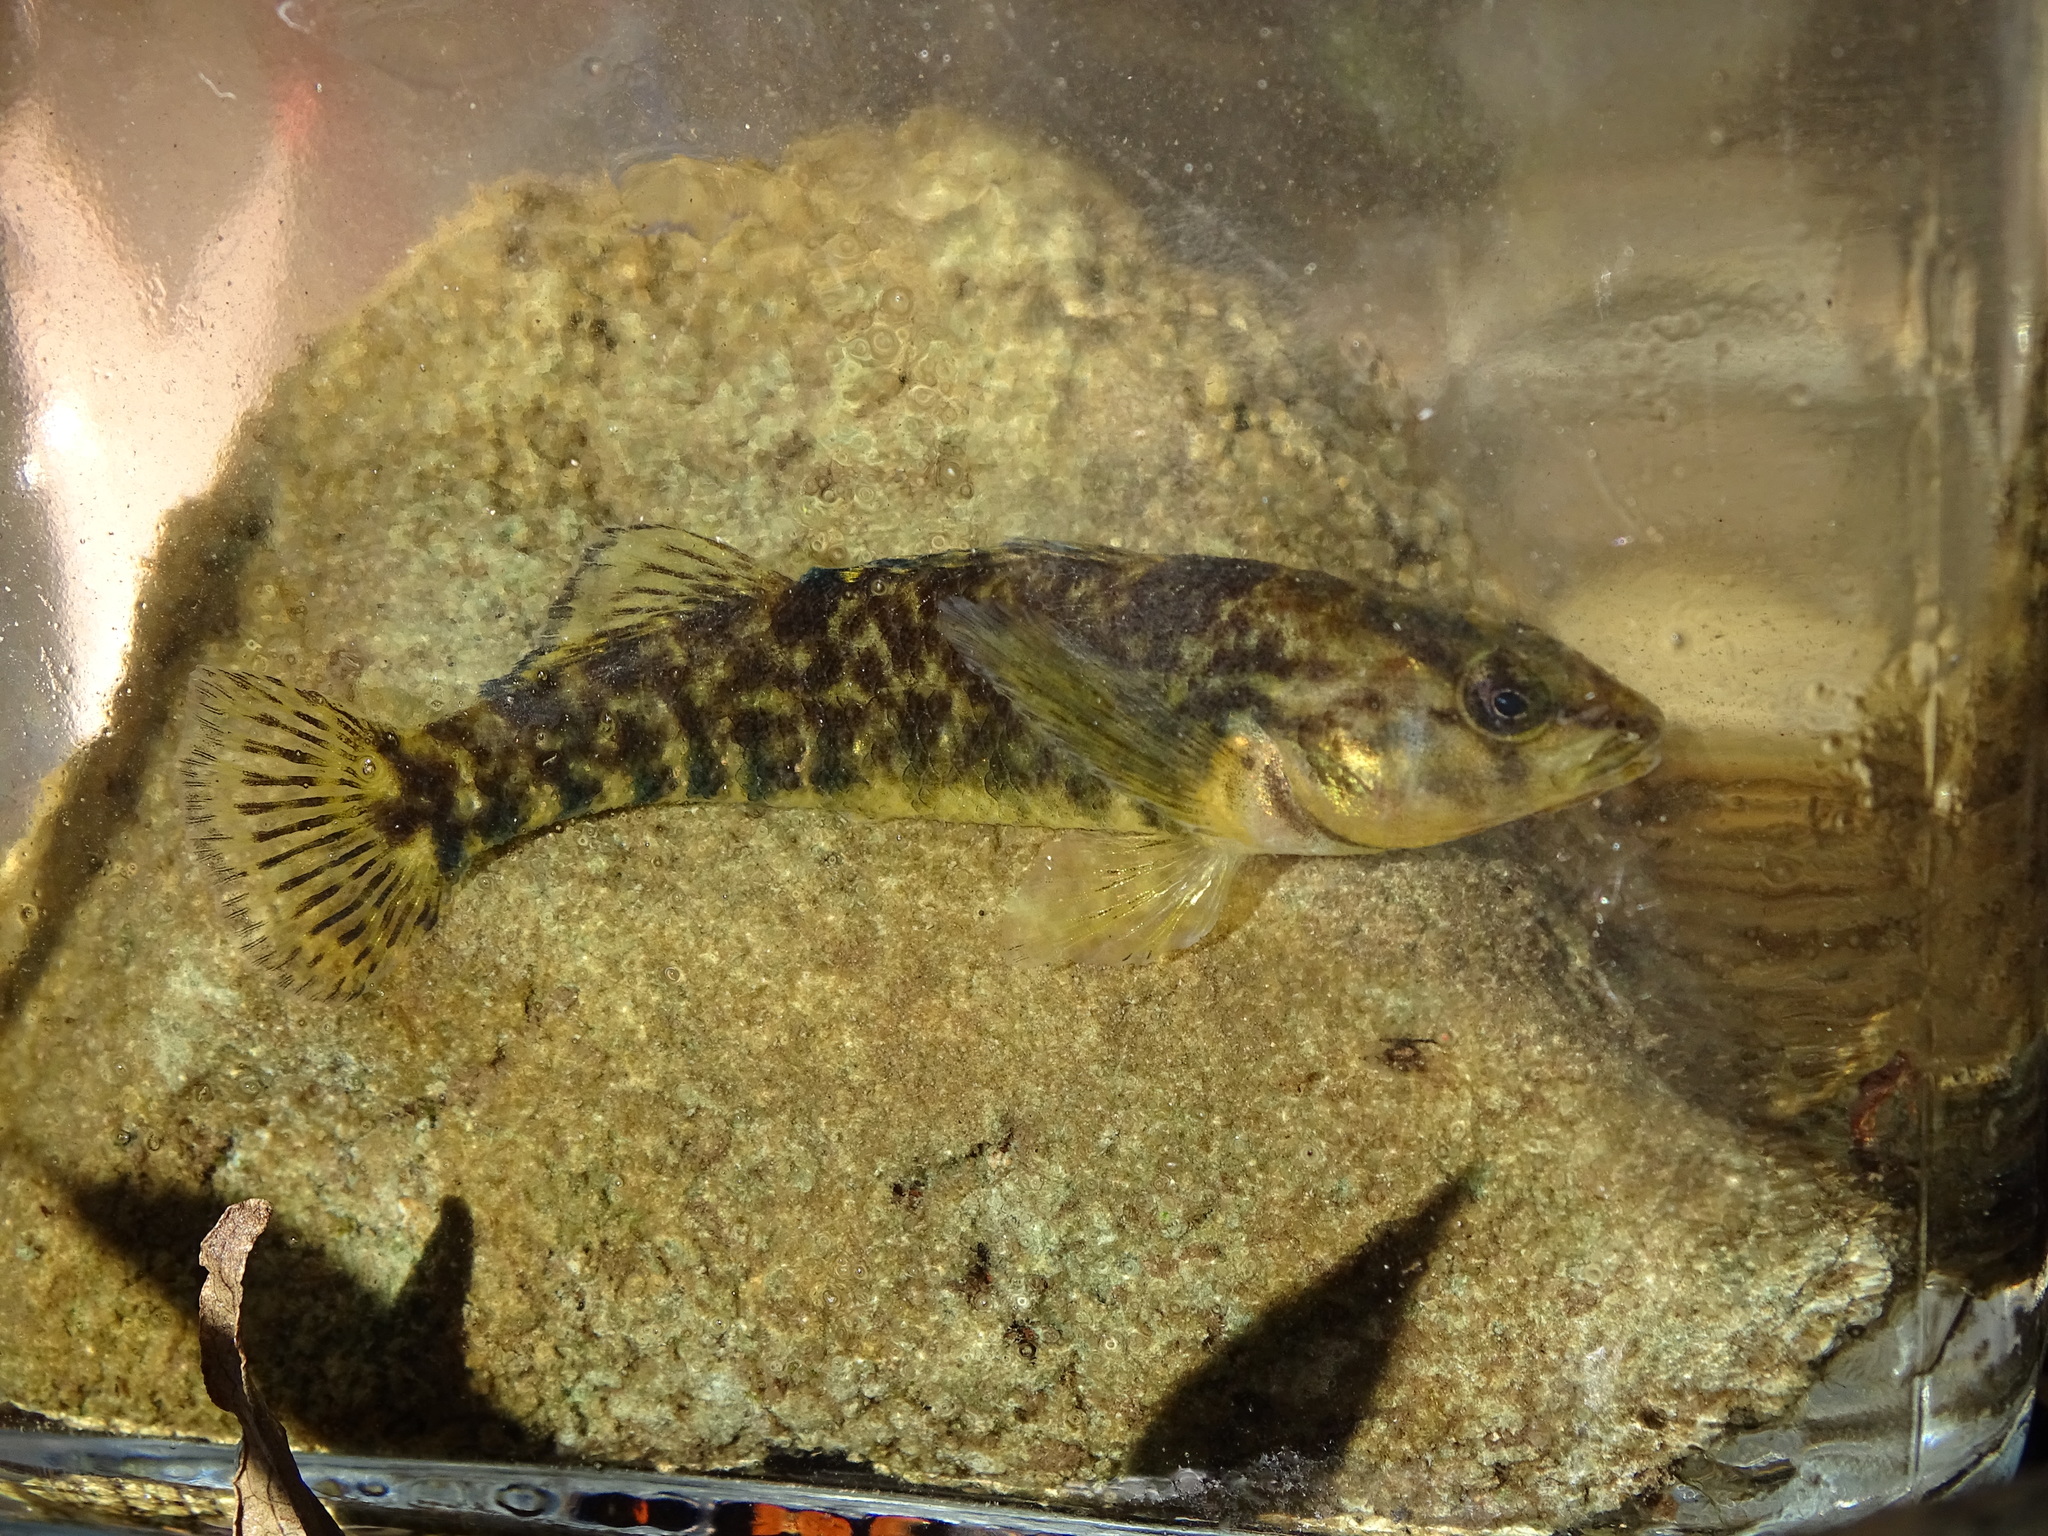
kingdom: Animalia
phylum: Chordata
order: Perciformes
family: Percidae
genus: Etheostoma
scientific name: Etheostoma caeruleum
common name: Rainbow darter
